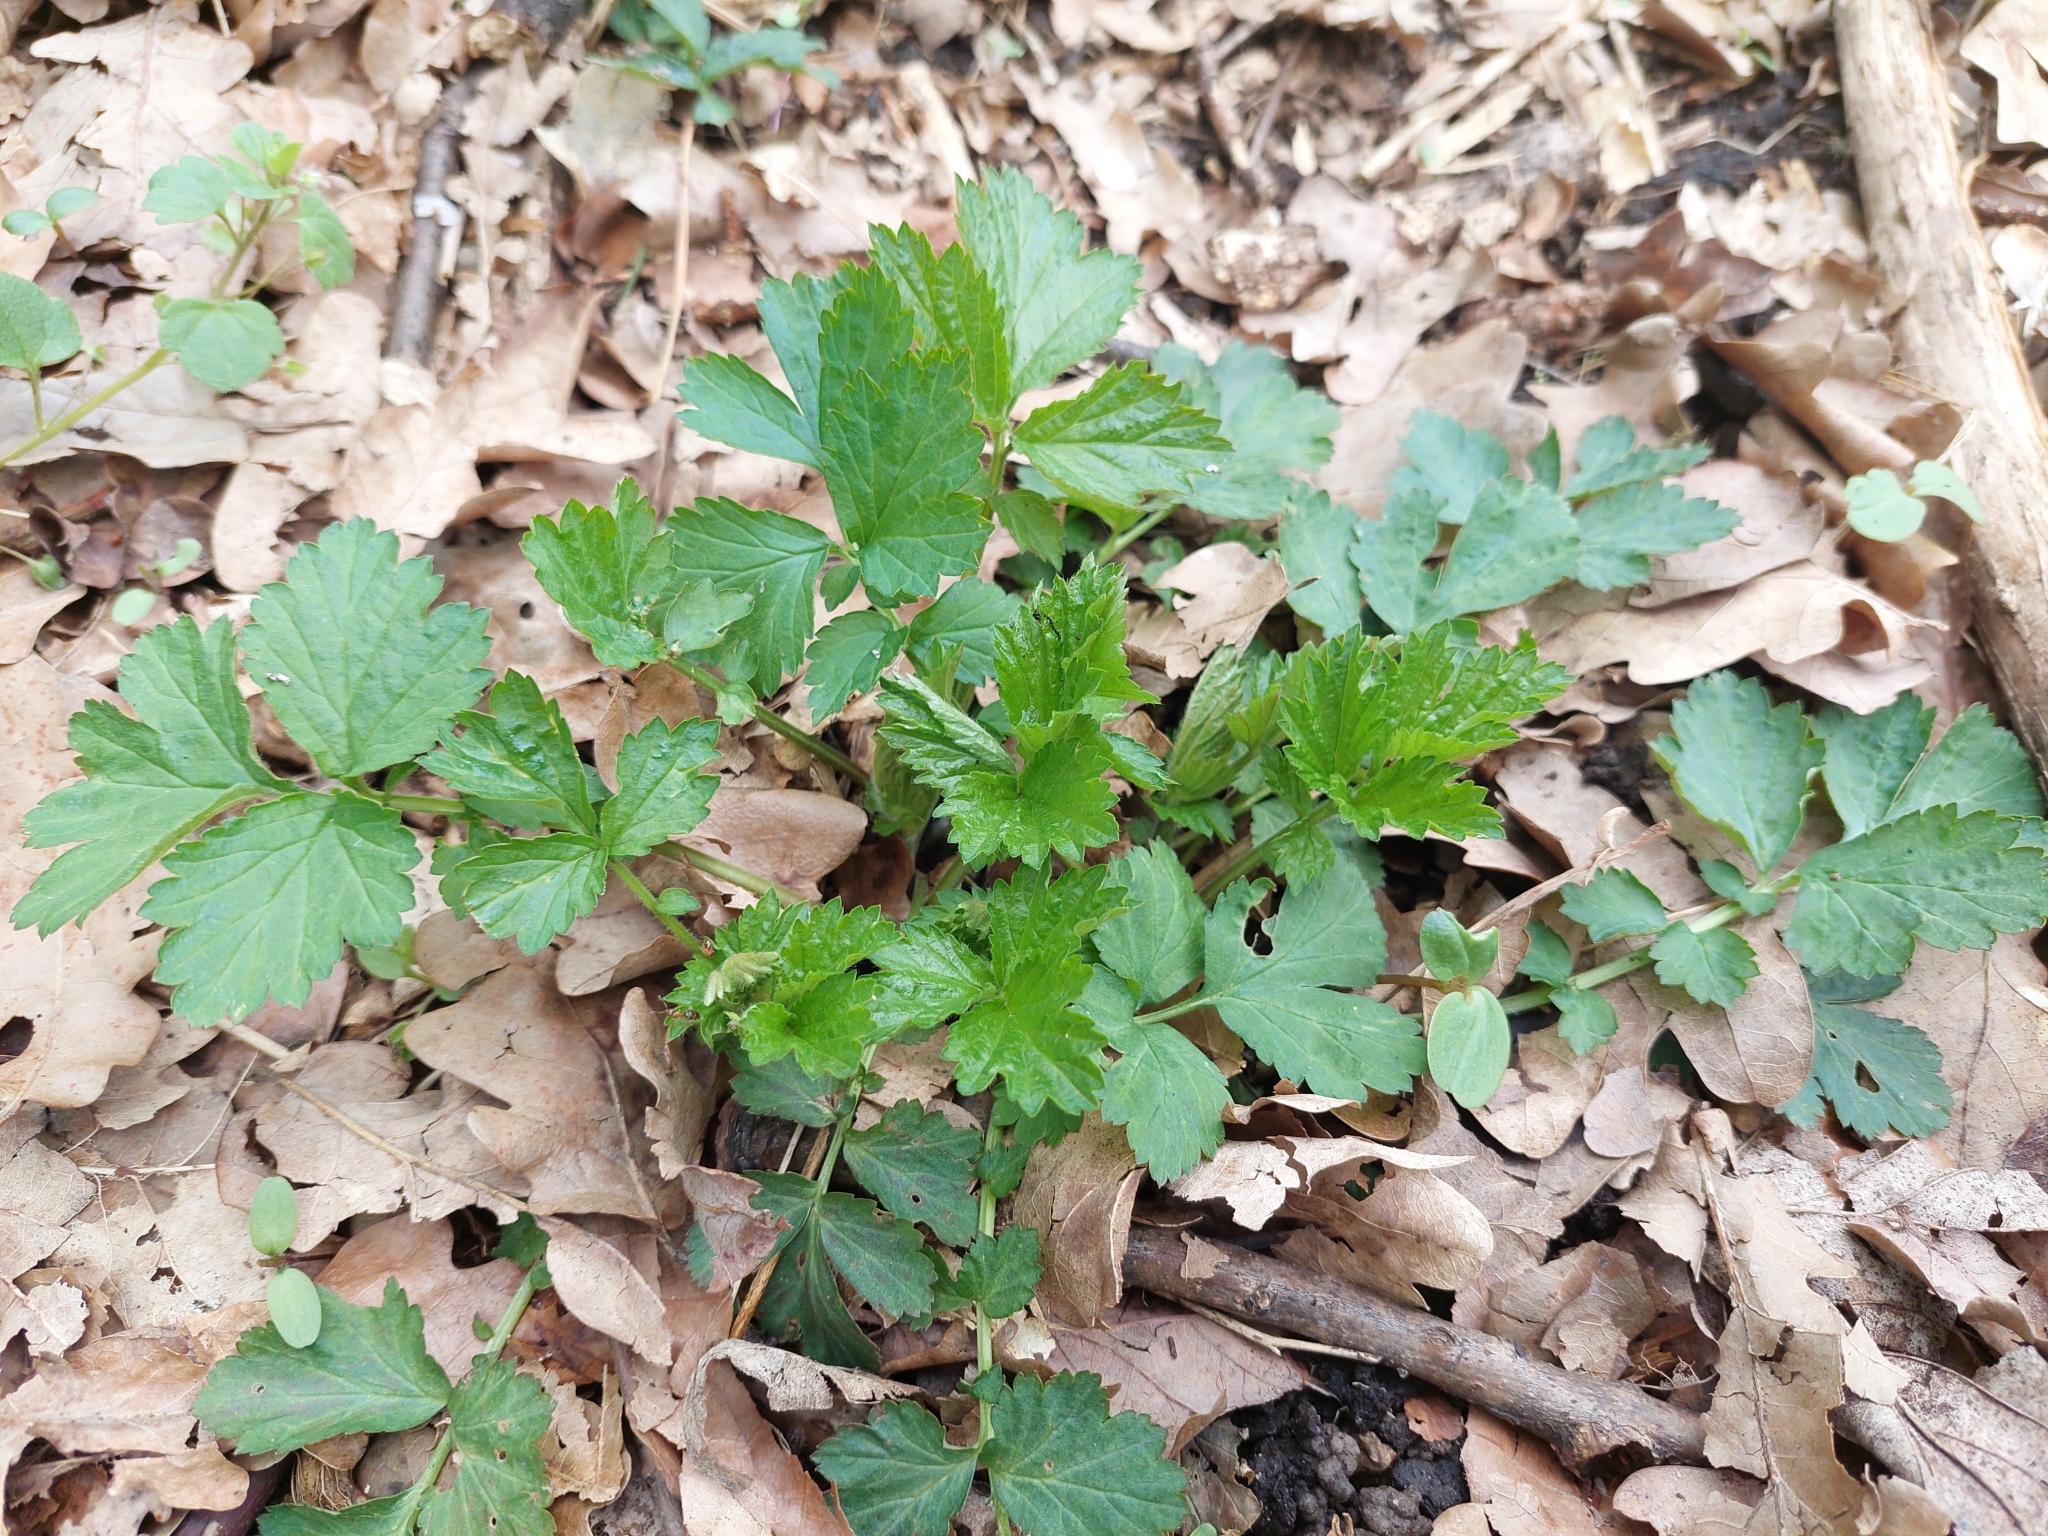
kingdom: Plantae
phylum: Tracheophyta
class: Magnoliopsida
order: Rosales
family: Rosaceae
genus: Geum
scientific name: Geum urbanum
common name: Wood avens
